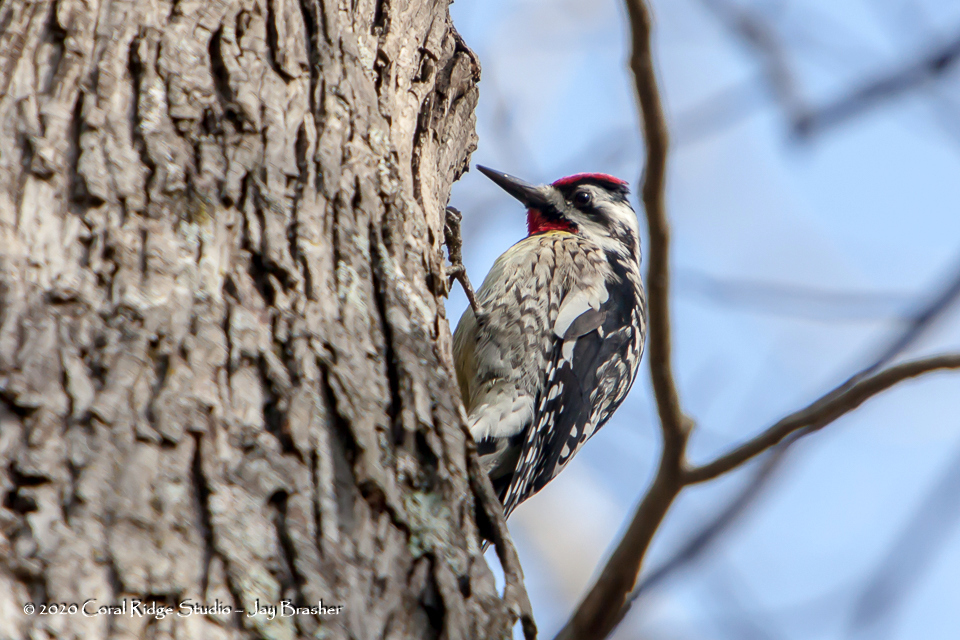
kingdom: Animalia
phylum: Chordata
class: Aves
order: Piciformes
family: Picidae
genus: Sphyrapicus
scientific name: Sphyrapicus varius
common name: Yellow-bellied sapsucker
